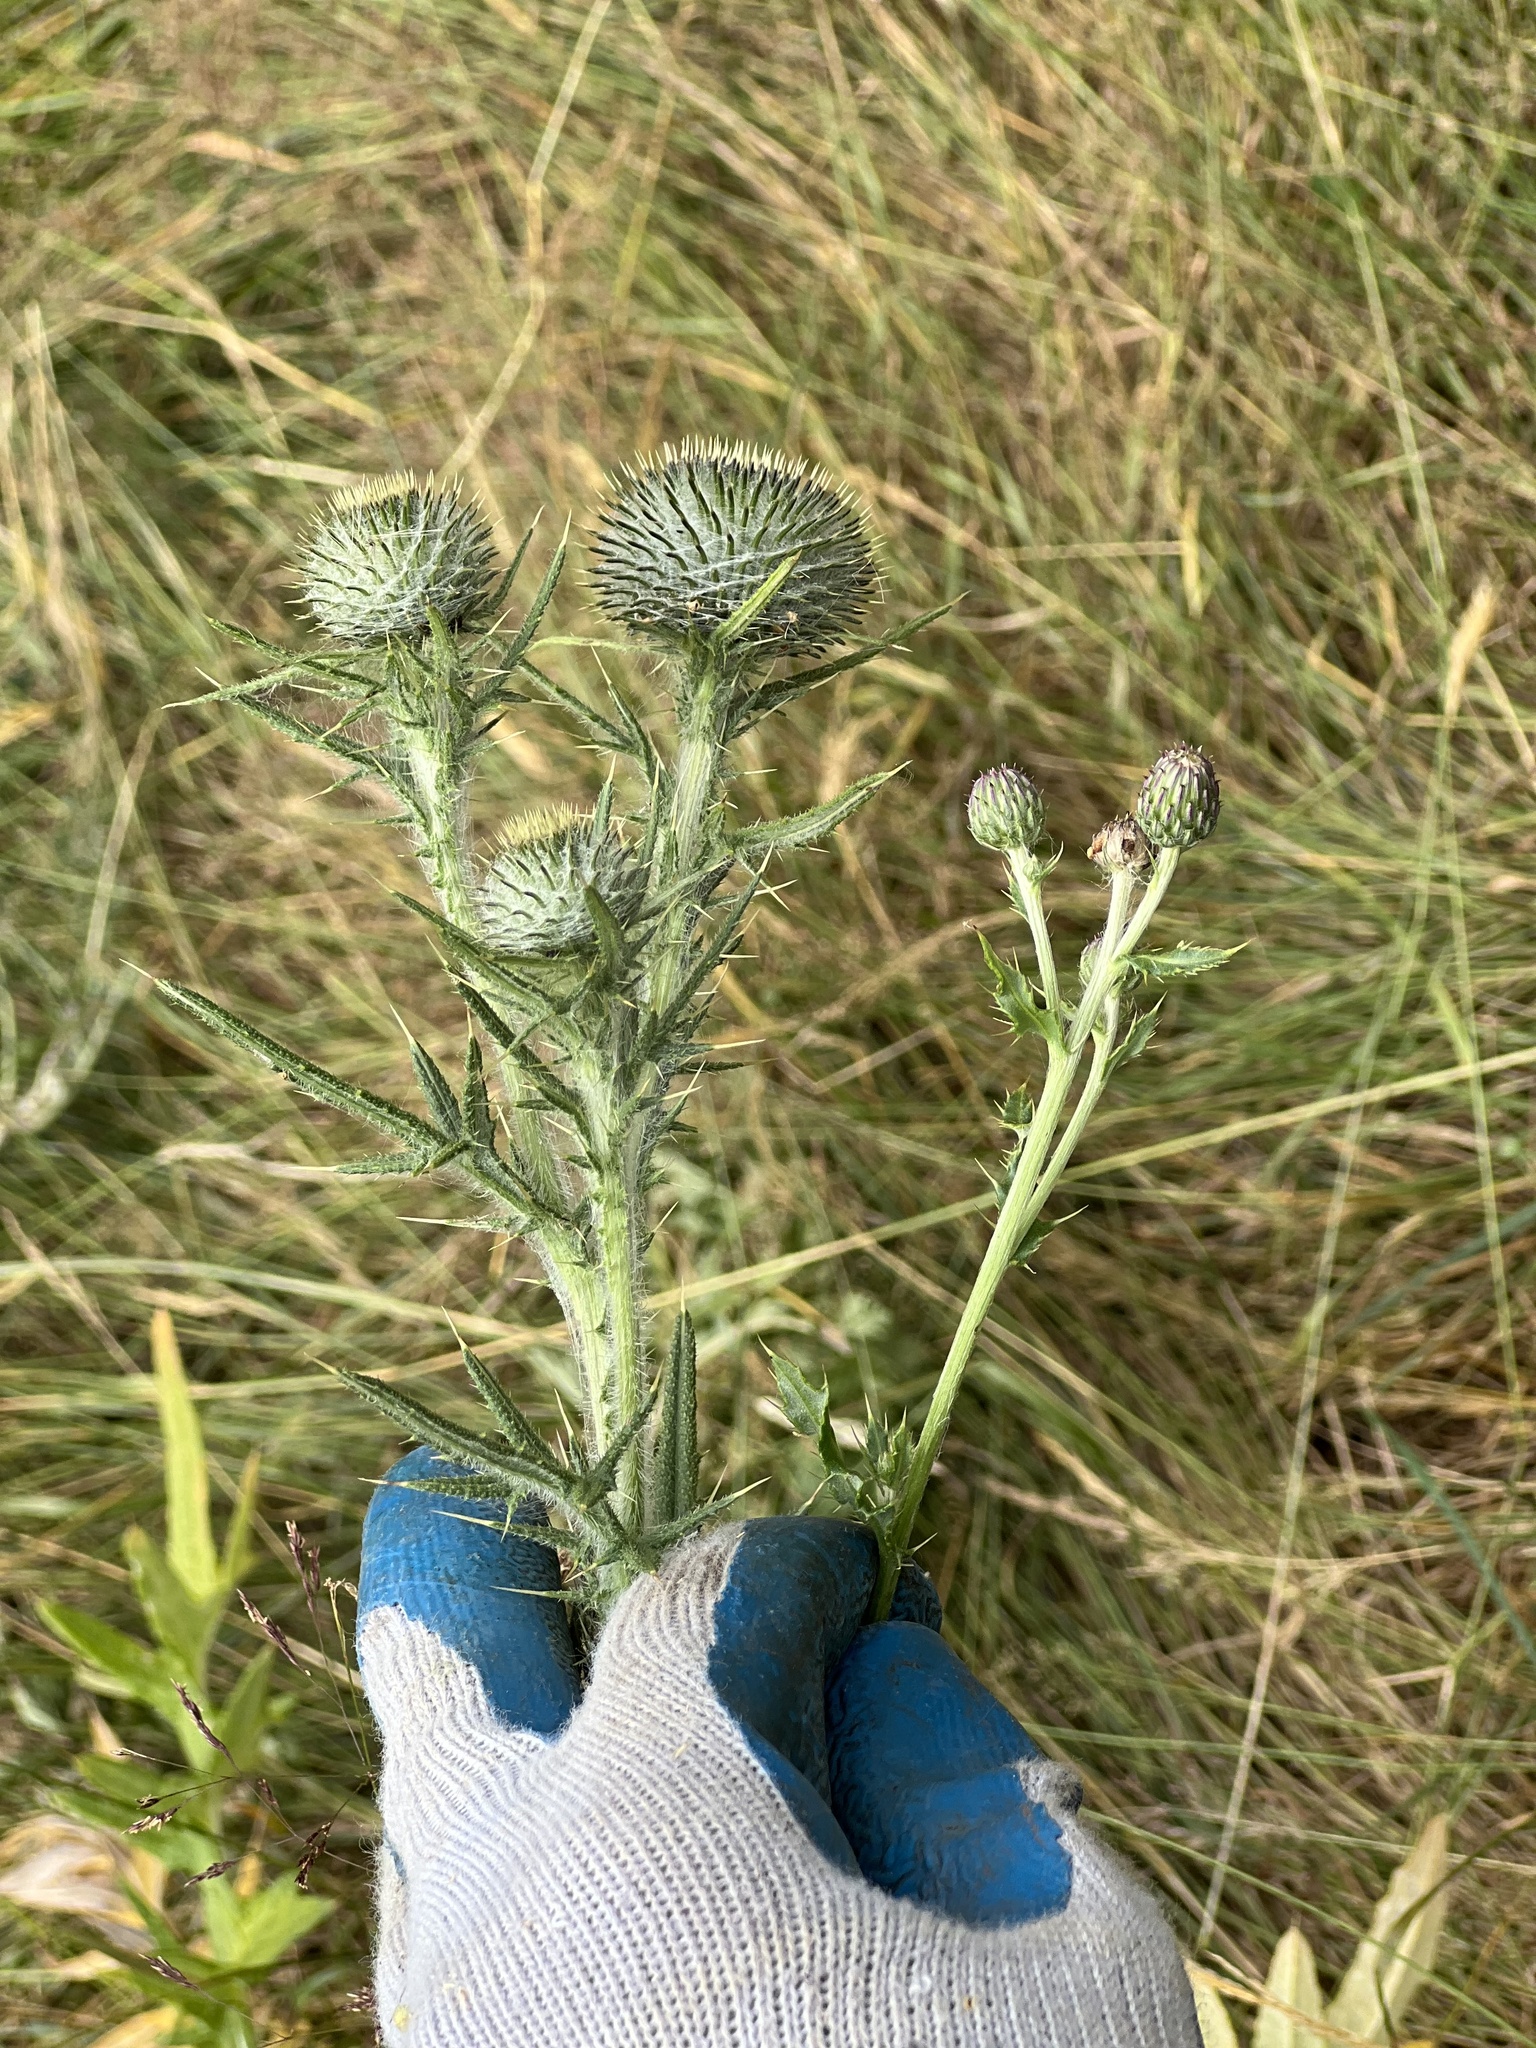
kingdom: Plantae
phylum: Tracheophyta
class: Magnoliopsida
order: Asterales
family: Asteraceae
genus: Cirsium
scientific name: Cirsium vulgare
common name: Bull thistle
